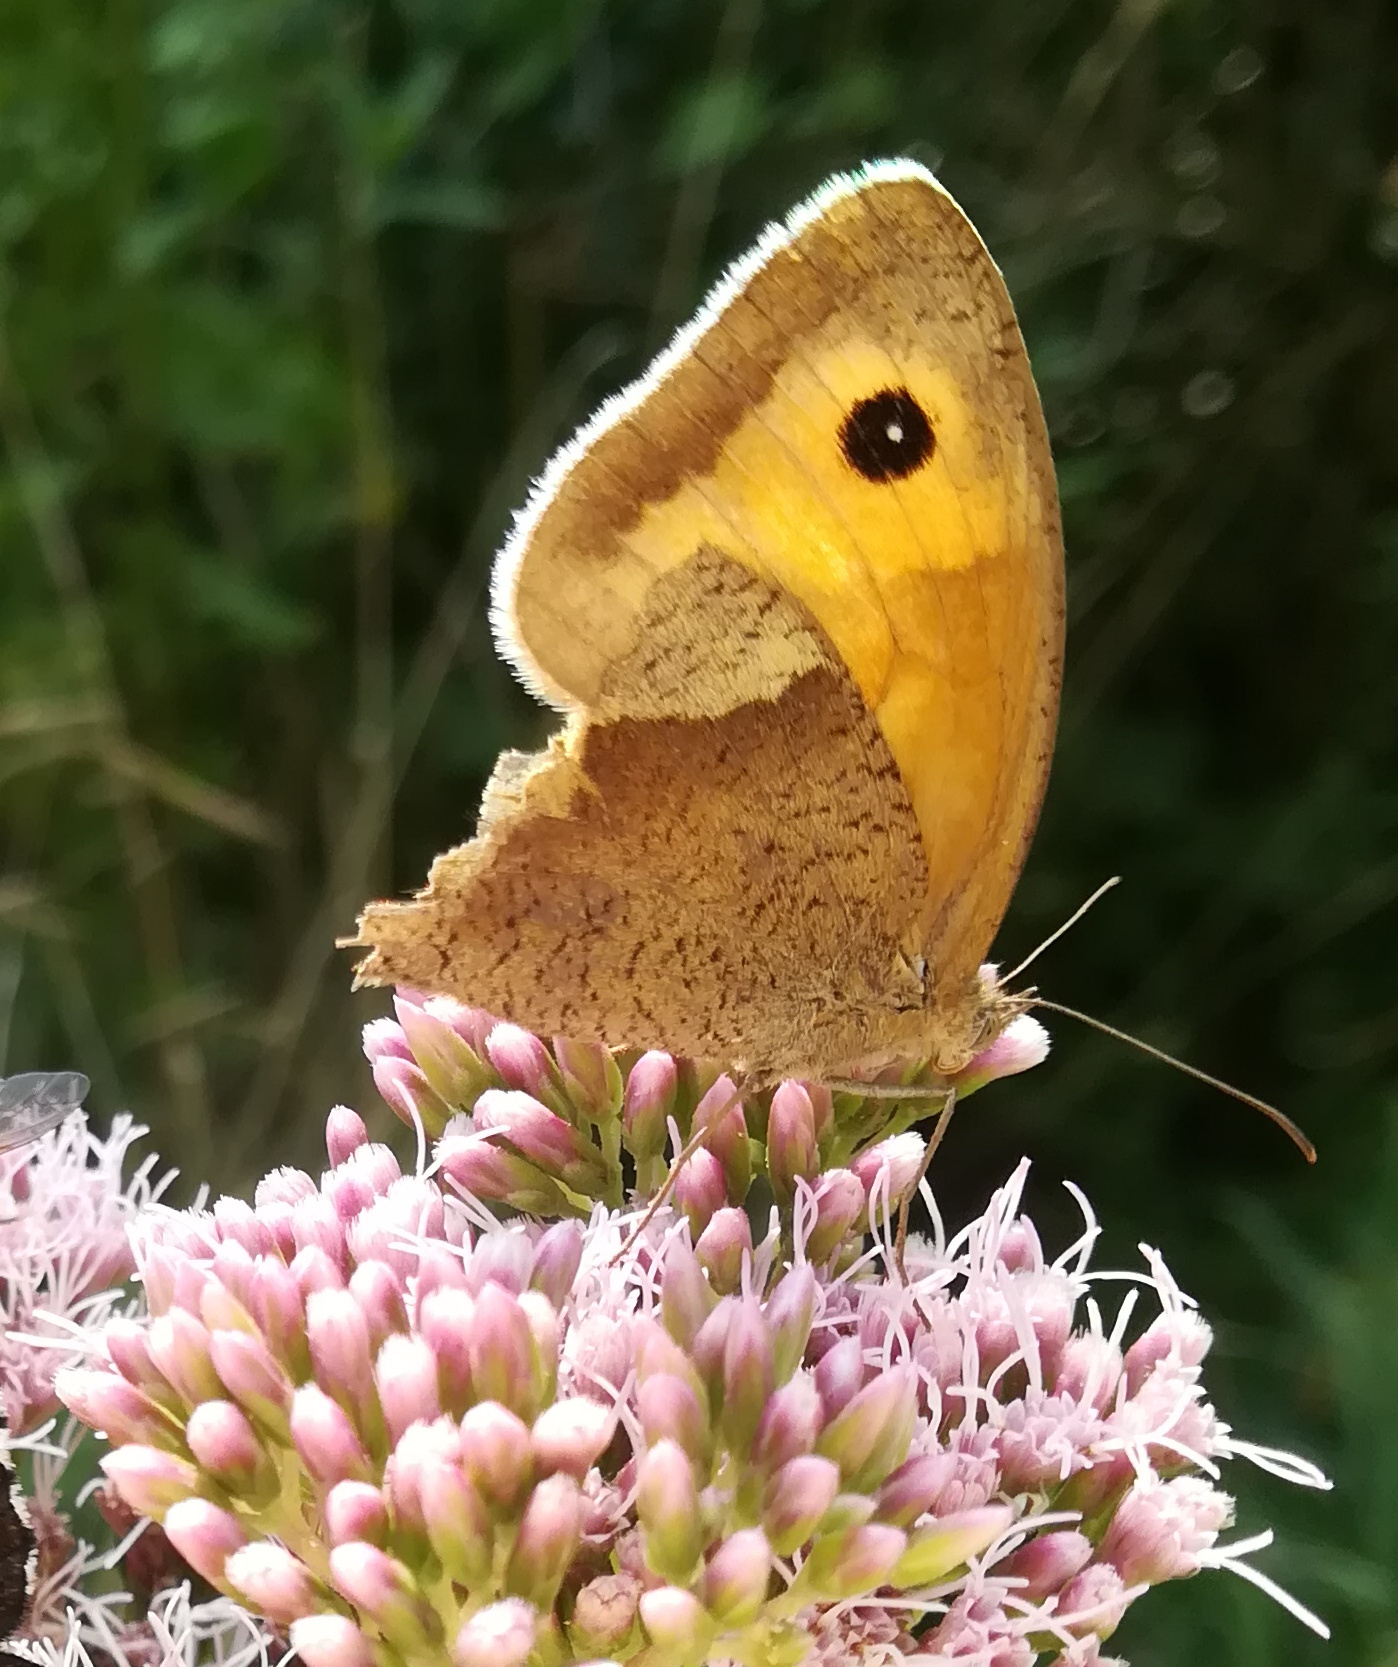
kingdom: Animalia
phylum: Arthropoda
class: Insecta
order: Lepidoptera
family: Nymphalidae
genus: Maniola
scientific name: Maniola jurtina
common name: Meadow brown
